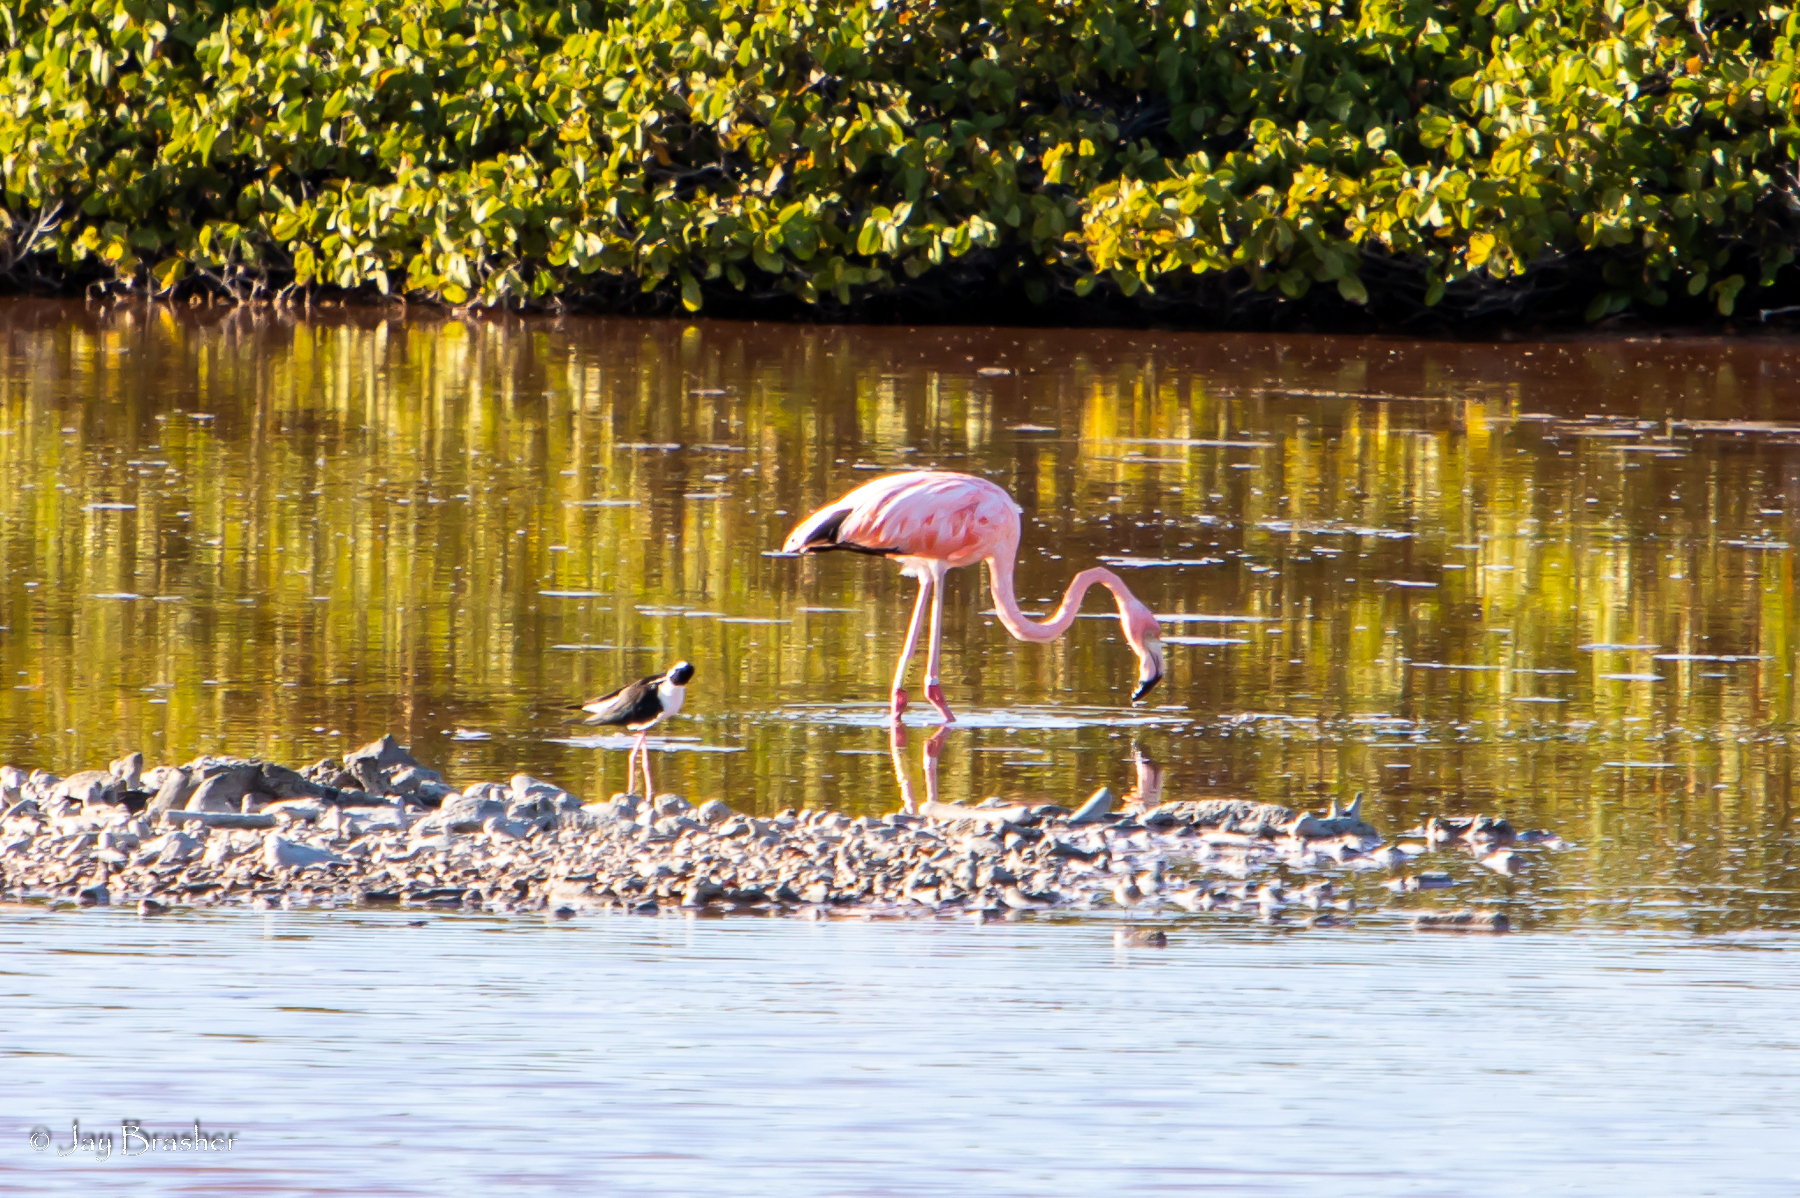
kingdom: Animalia
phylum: Chordata
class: Aves
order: Phoenicopteriformes
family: Phoenicopteridae
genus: Phoenicopterus
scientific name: Phoenicopterus ruber
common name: American flamingo
